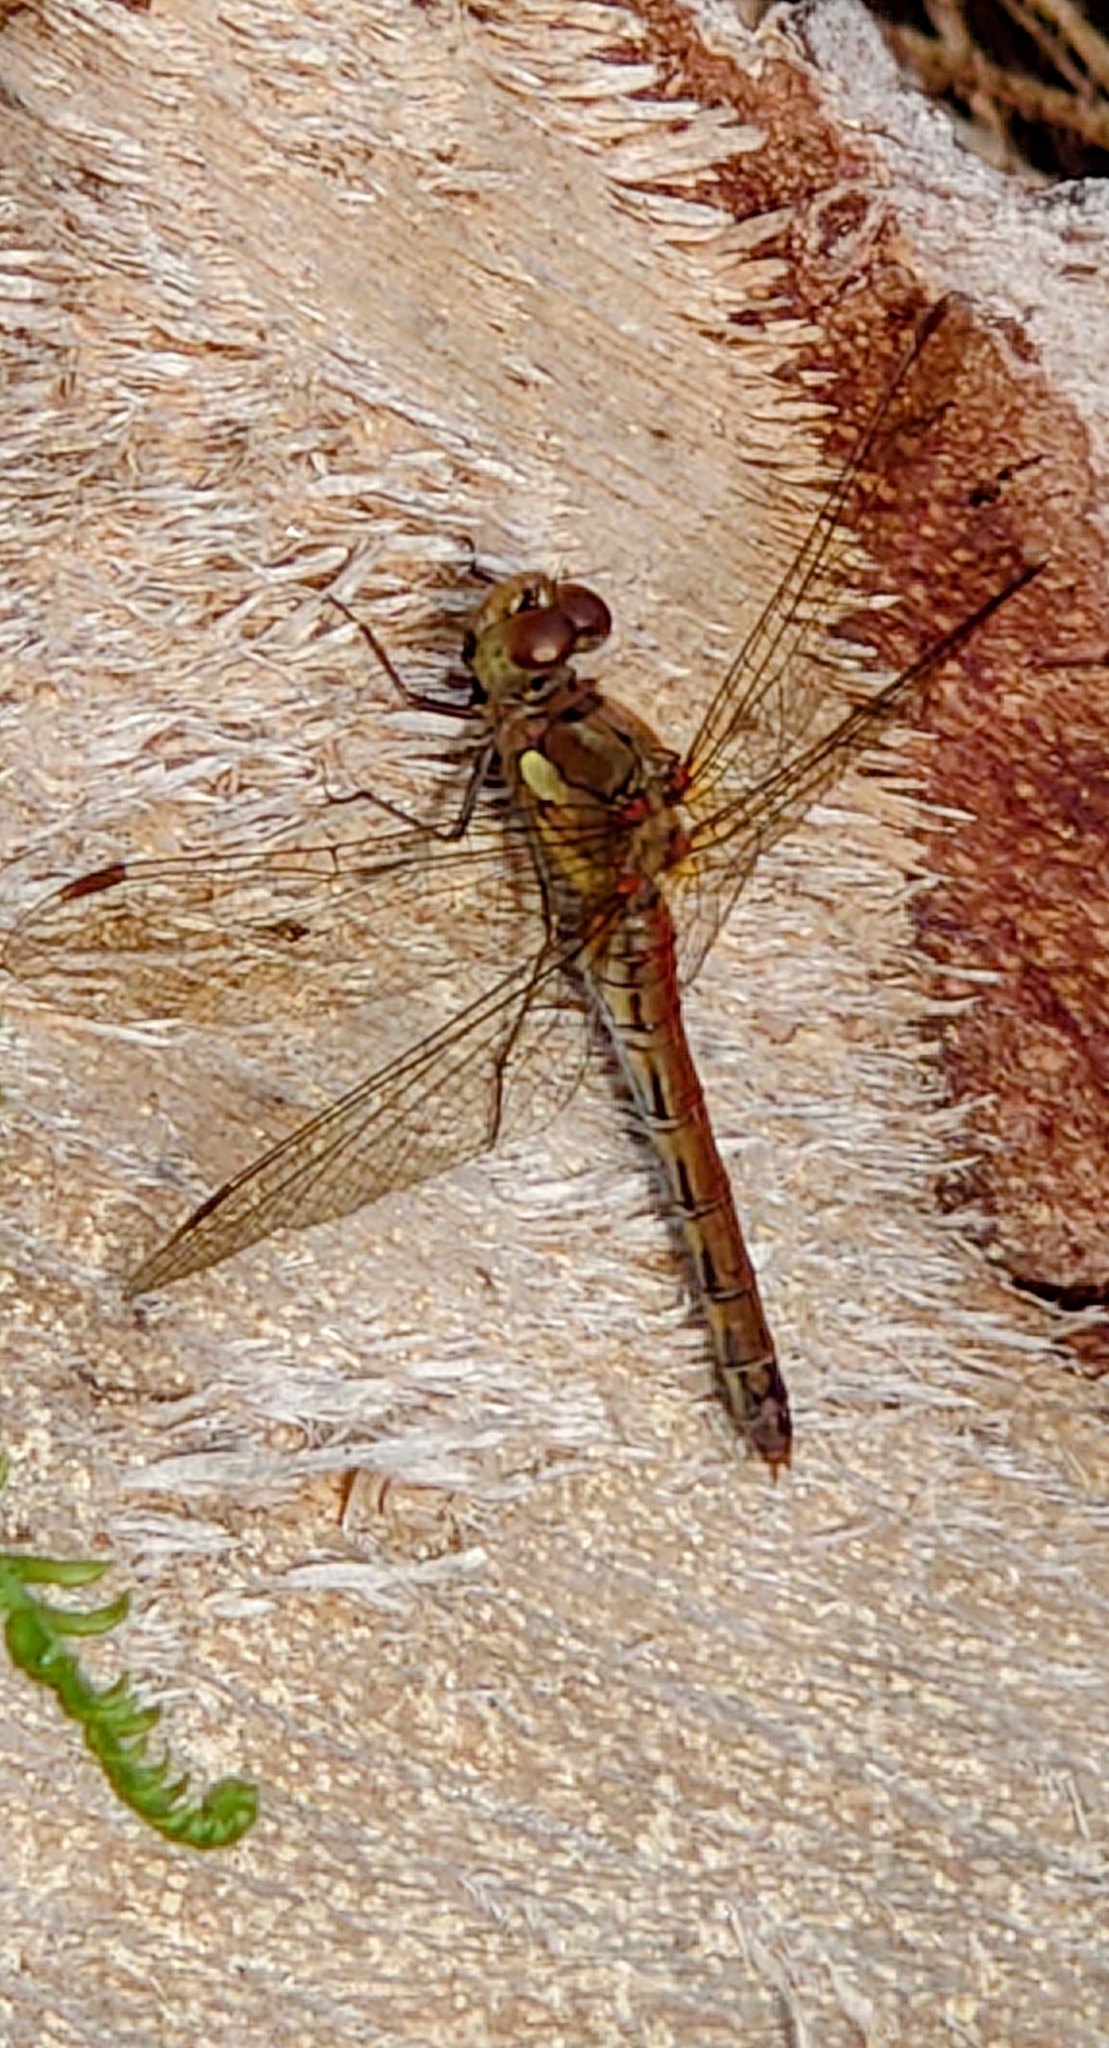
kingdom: Animalia
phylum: Arthropoda
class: Insecta
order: Odonata
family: Libellulidae
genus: Sympetrum
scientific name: Sympetrum striolatum
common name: Common darter
